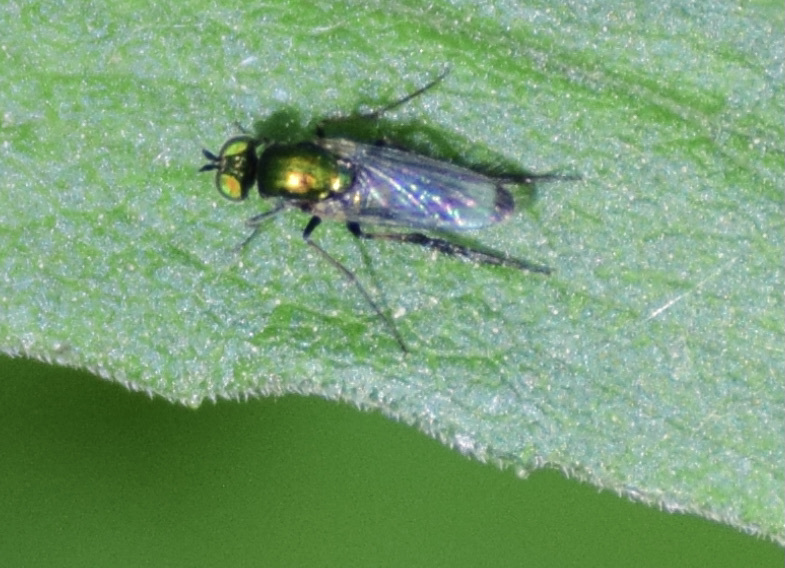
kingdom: Animalia
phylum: Arthropoda
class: Insecta
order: Diptera
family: Dolichopodidae
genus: Dolichopus
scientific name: Dolichopus setifer
